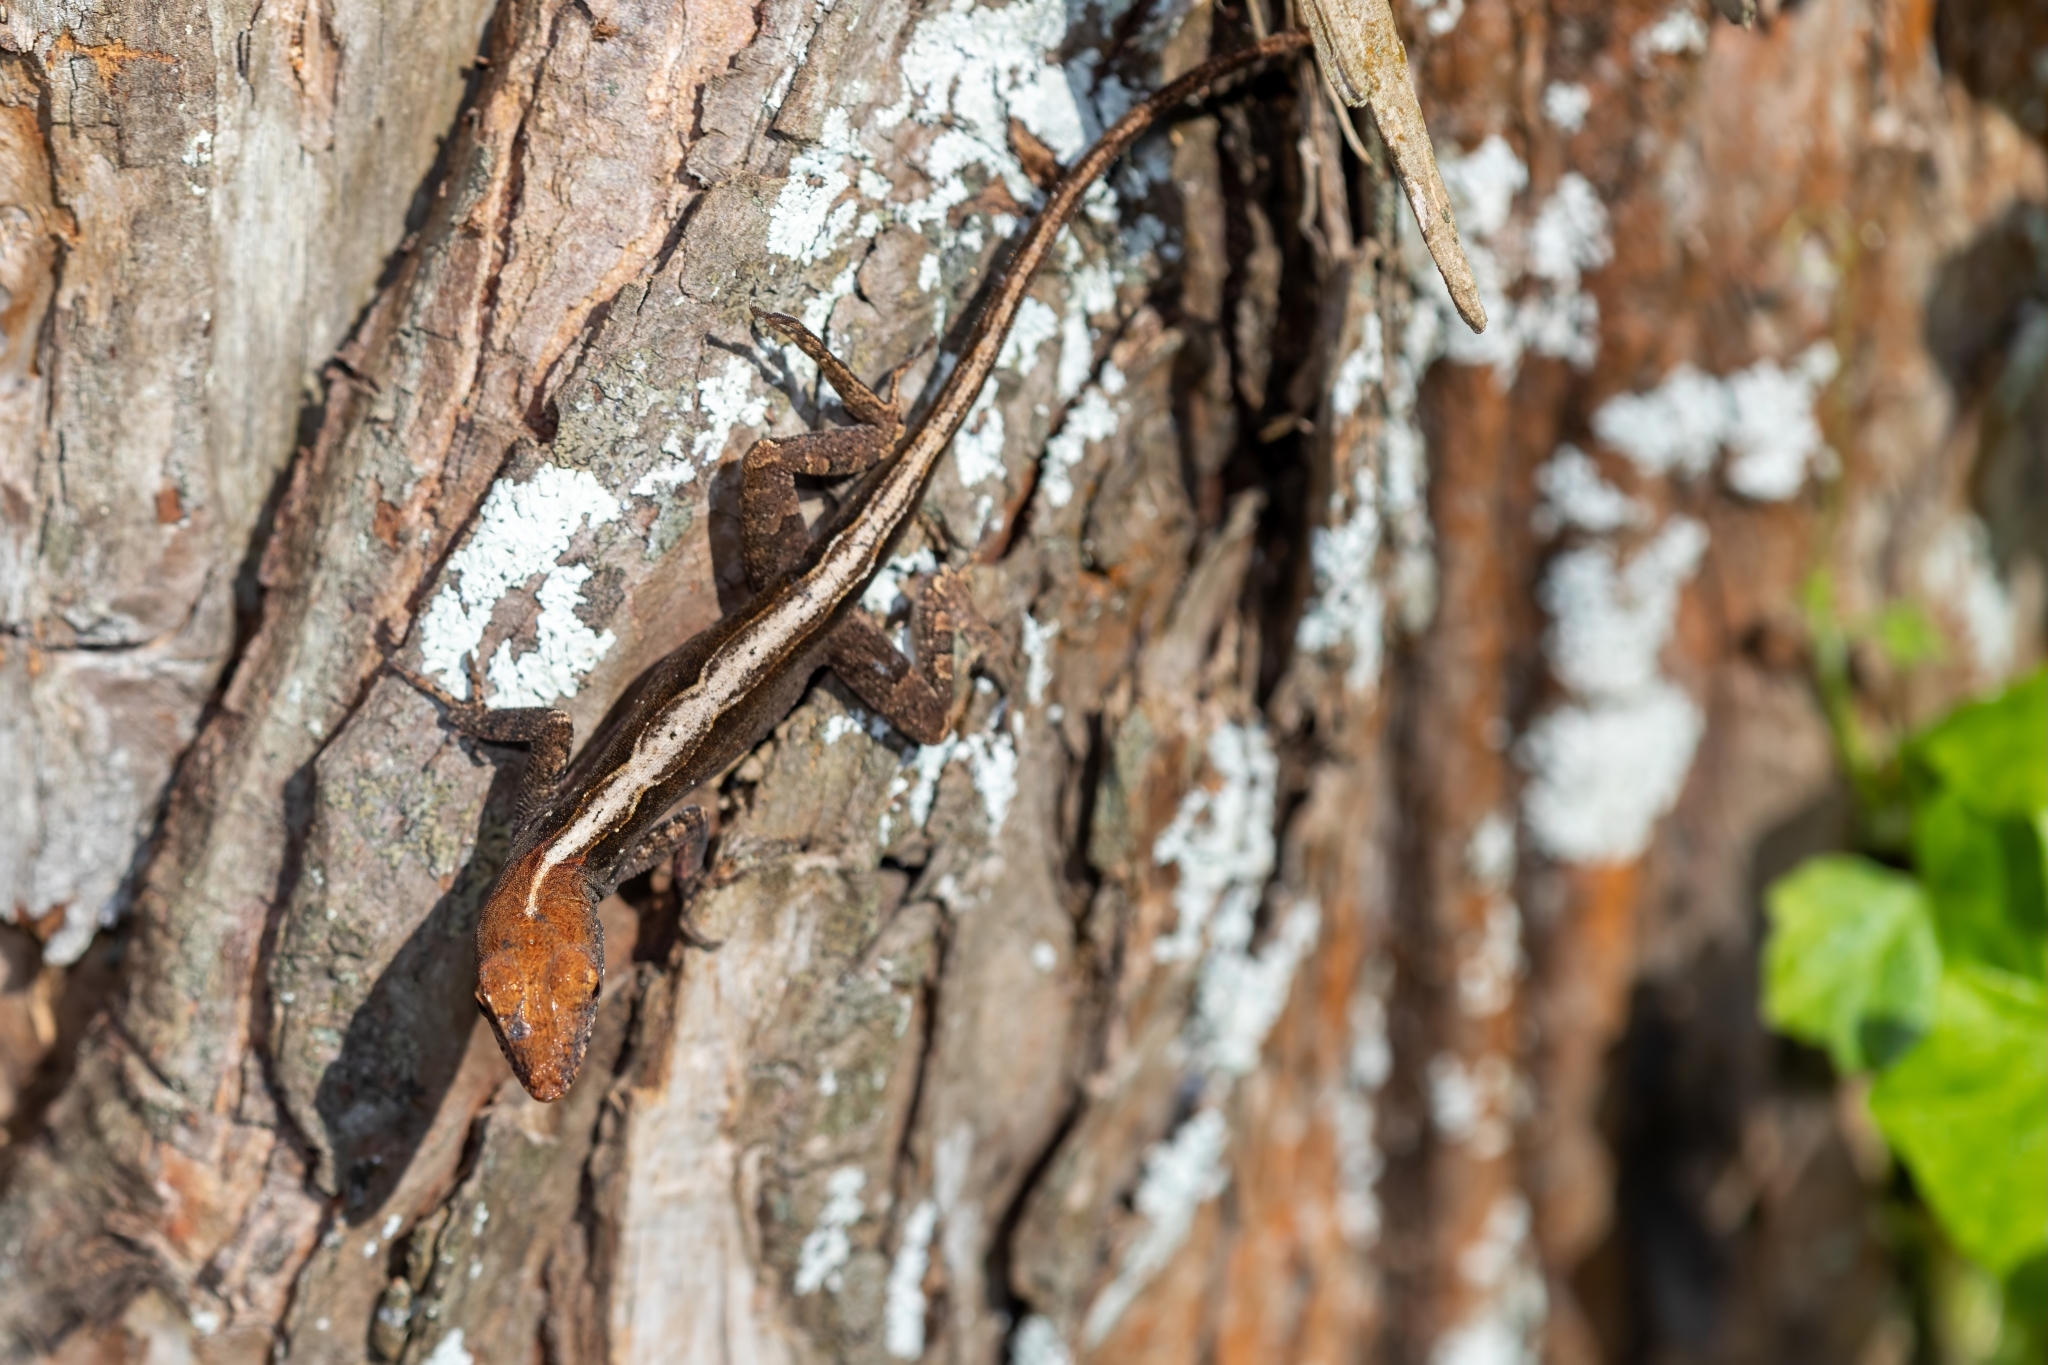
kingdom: Animalia
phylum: Chordata
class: Squamata
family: Dactyloidae
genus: Anolis
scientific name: Anolis sagrei
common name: Brown anole
